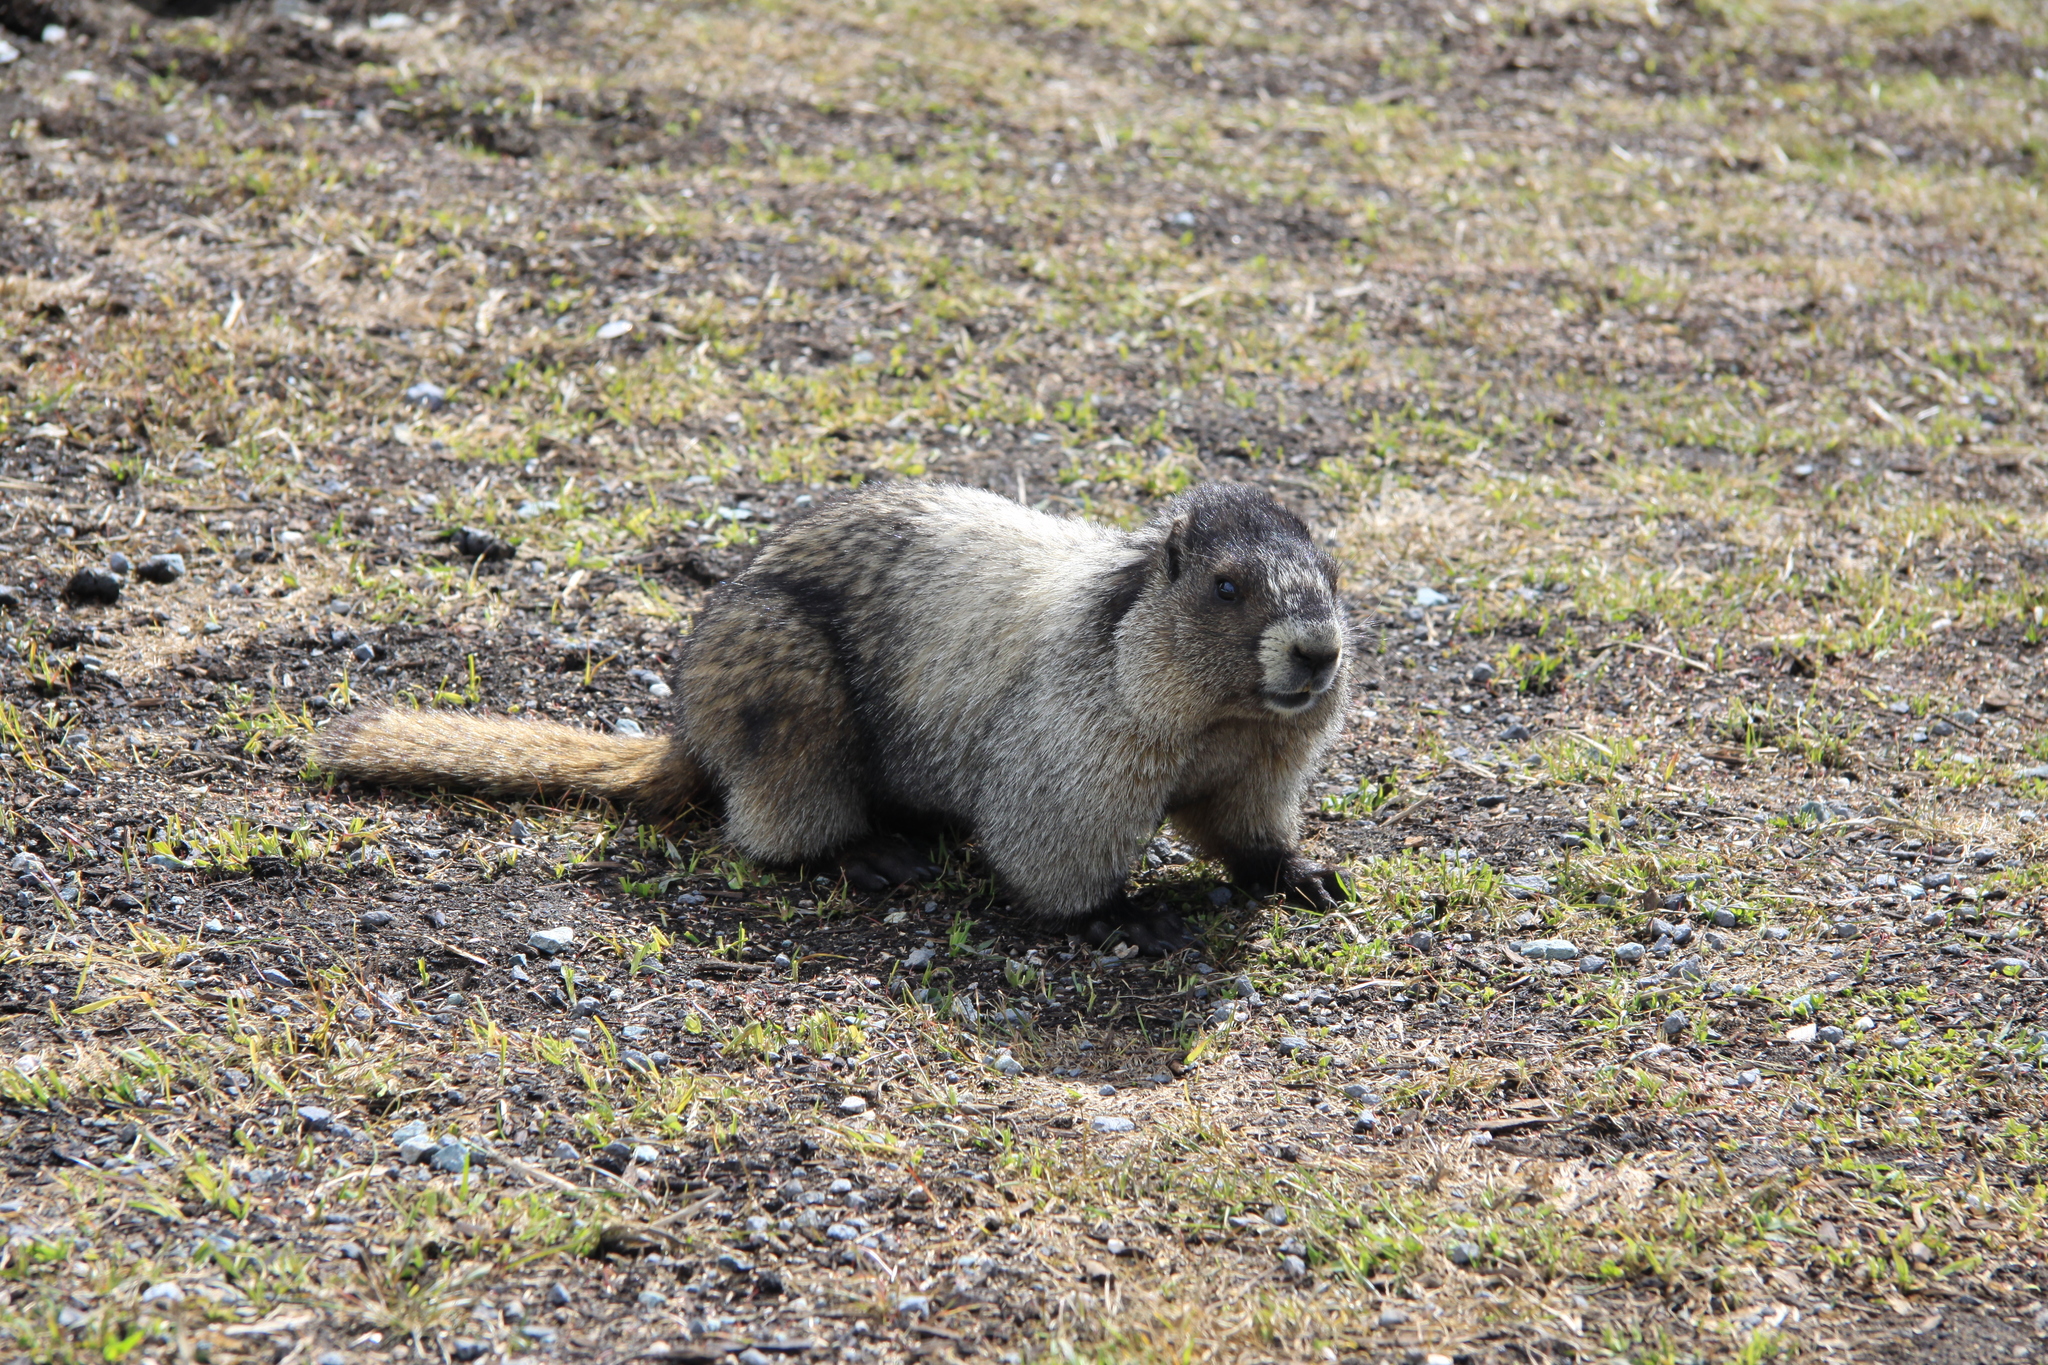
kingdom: Animalia
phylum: Chordata
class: Mammalia
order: Rodentia
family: Sciuridae
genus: Marmota
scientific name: Marmota caligata
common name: Hoary marmot
